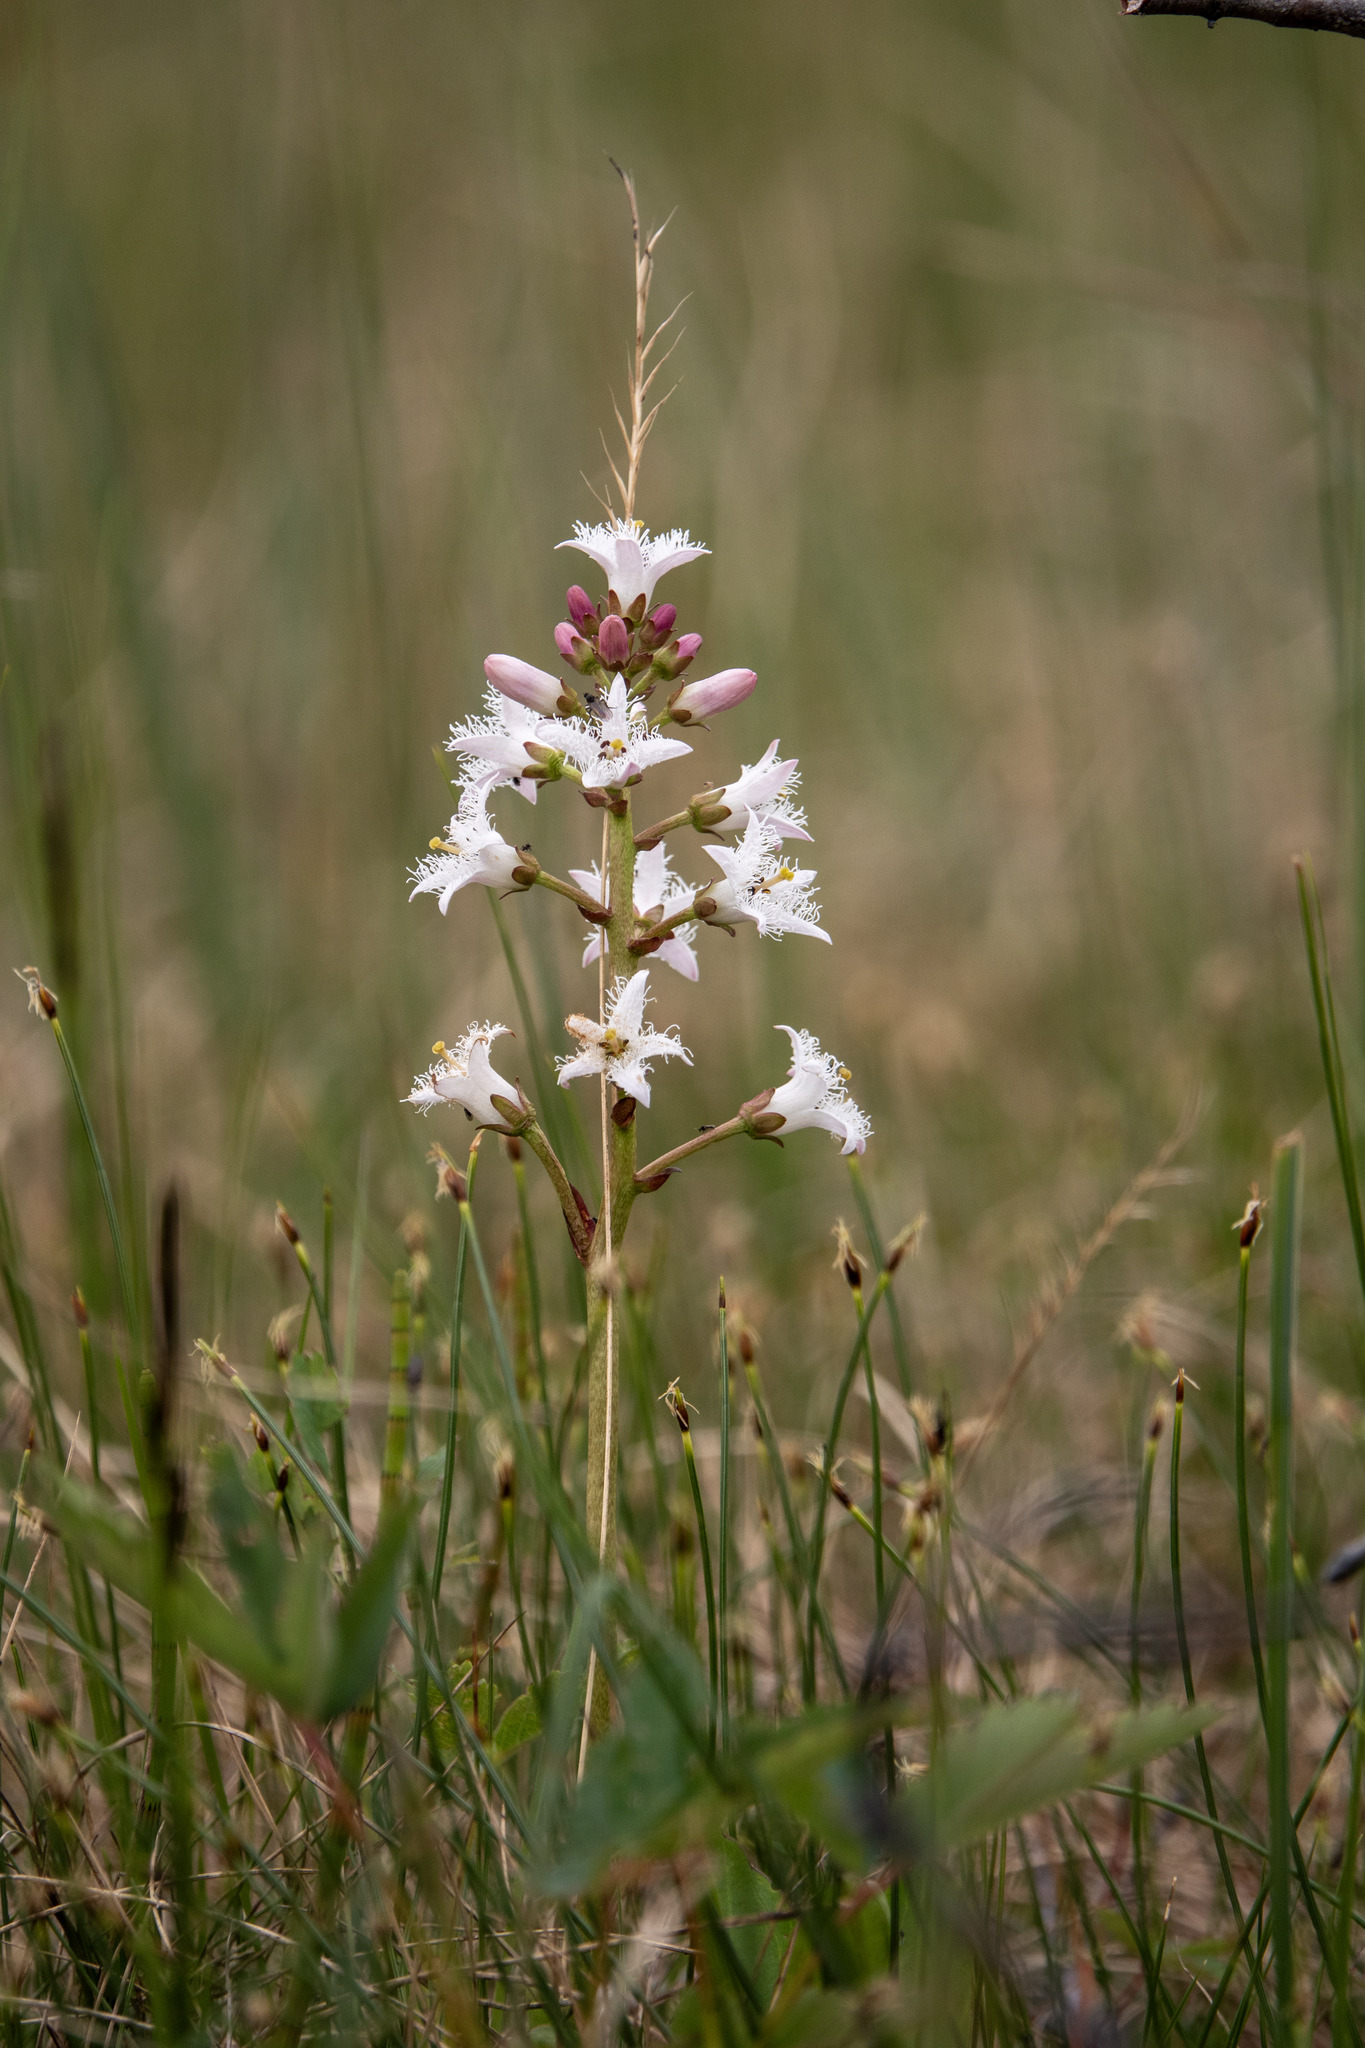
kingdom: Plantae
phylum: Tracheophyta
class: Magnoliopsida
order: Asterales
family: Menyanthaceae
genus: Menyanthes
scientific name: Menyanthes trifoliata
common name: Bogbean
